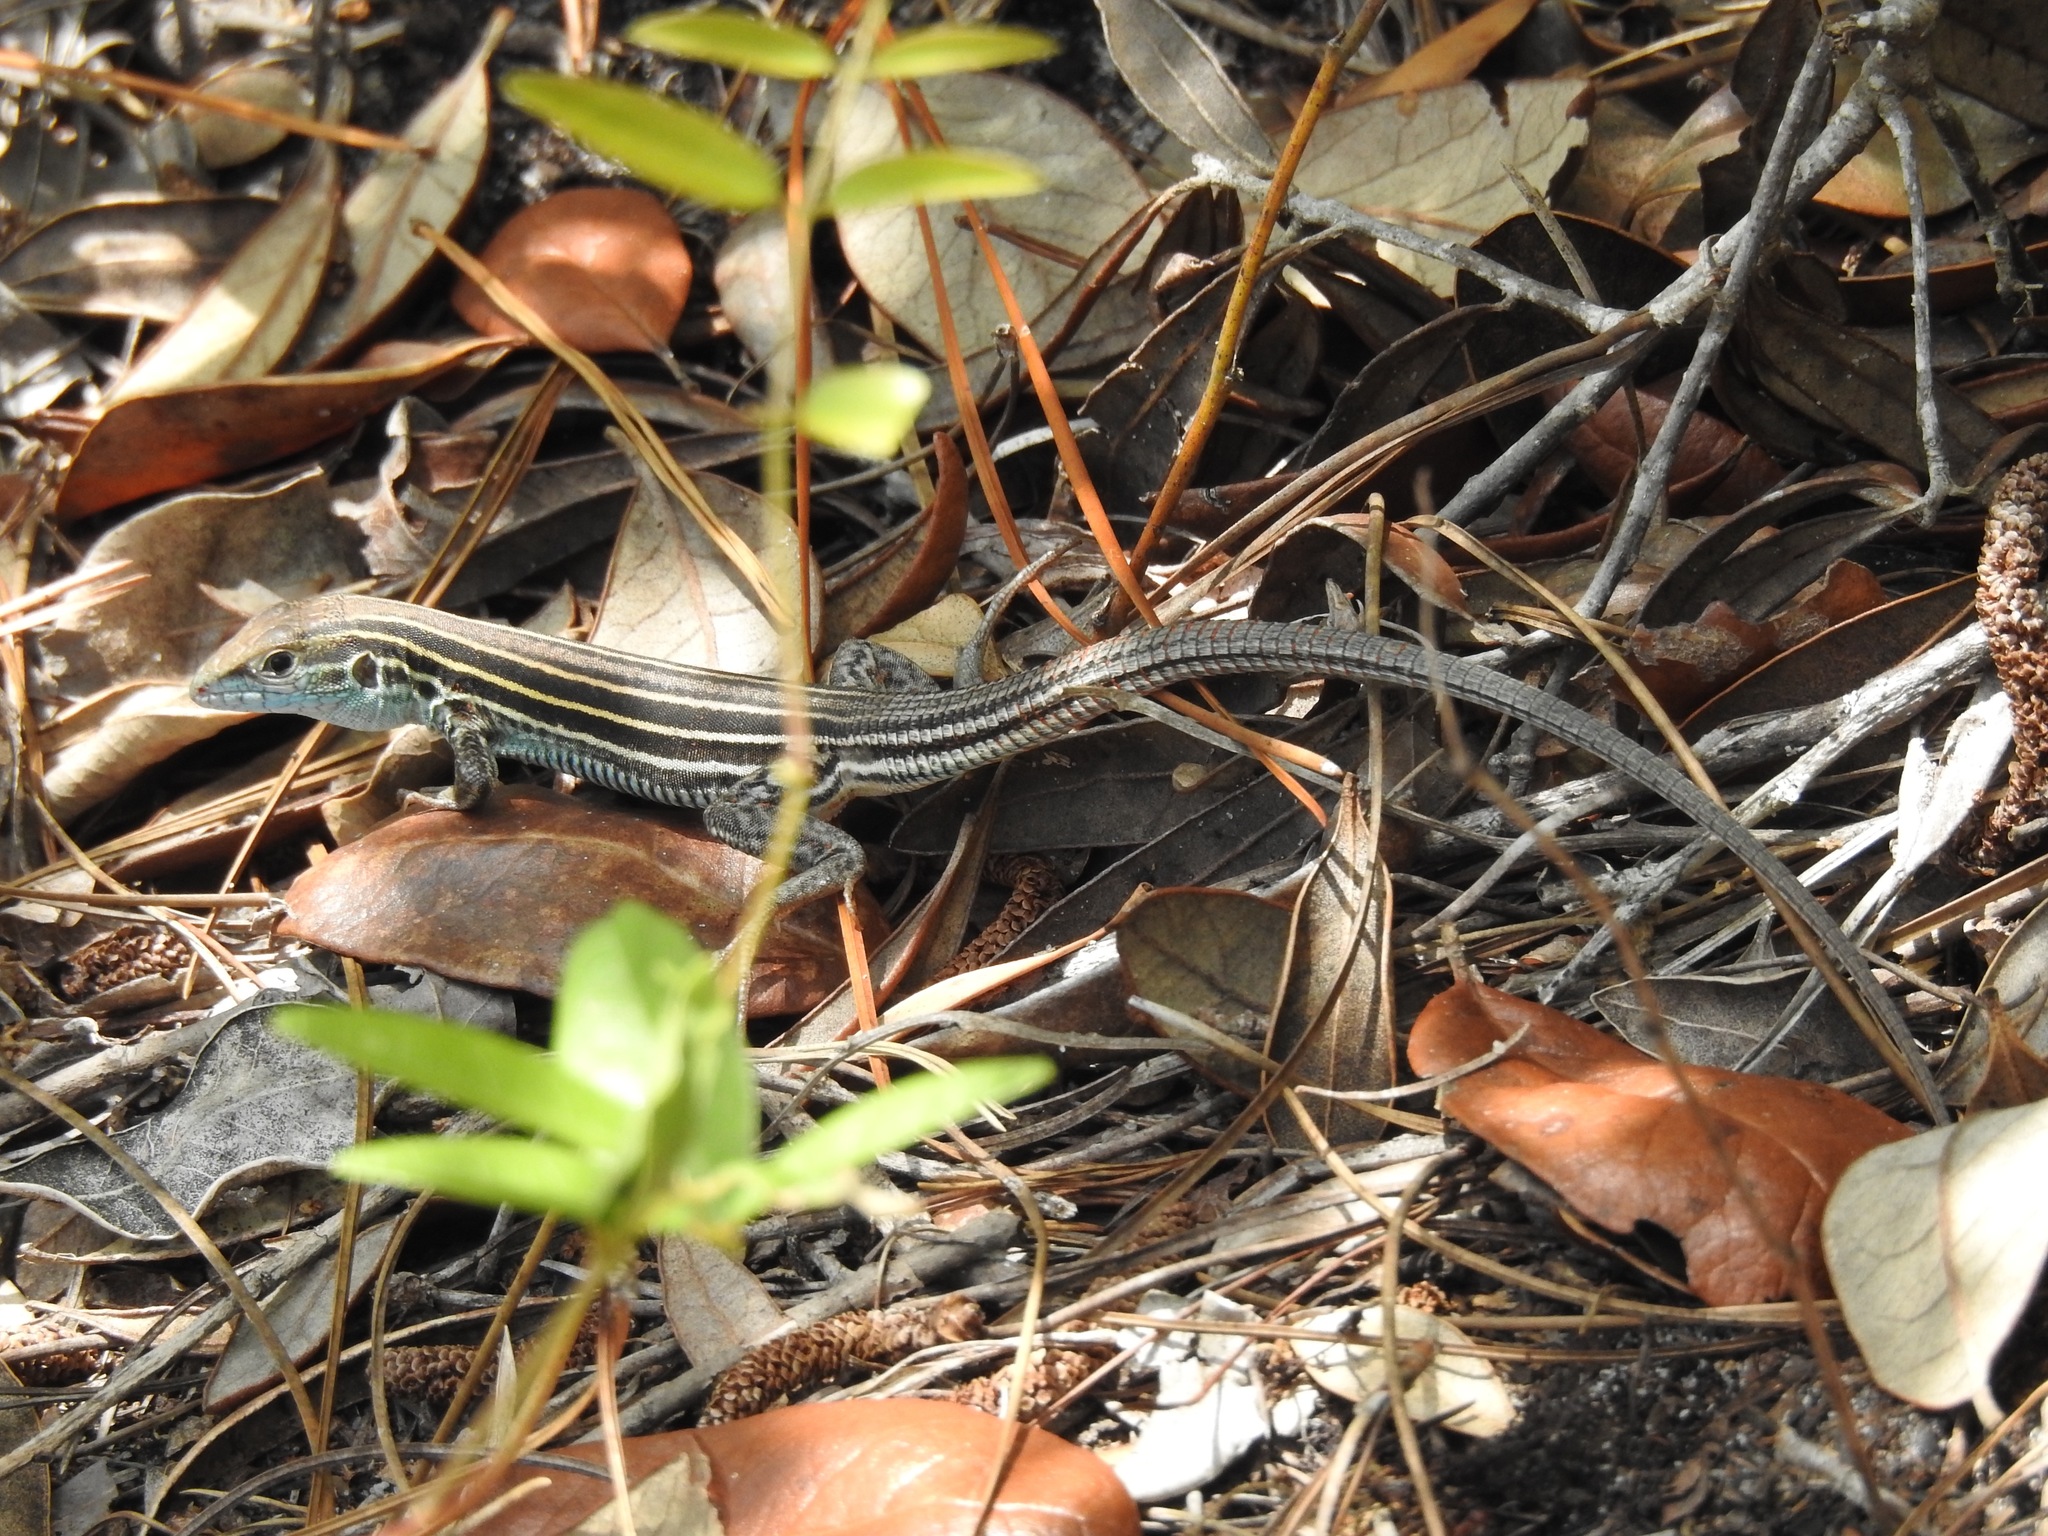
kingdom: Animalia
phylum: Chordata
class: Squamata
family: Teiidae
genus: Aspidoscelis
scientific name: Aspidoscelis sexlineatus
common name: Six-lined racerunner
